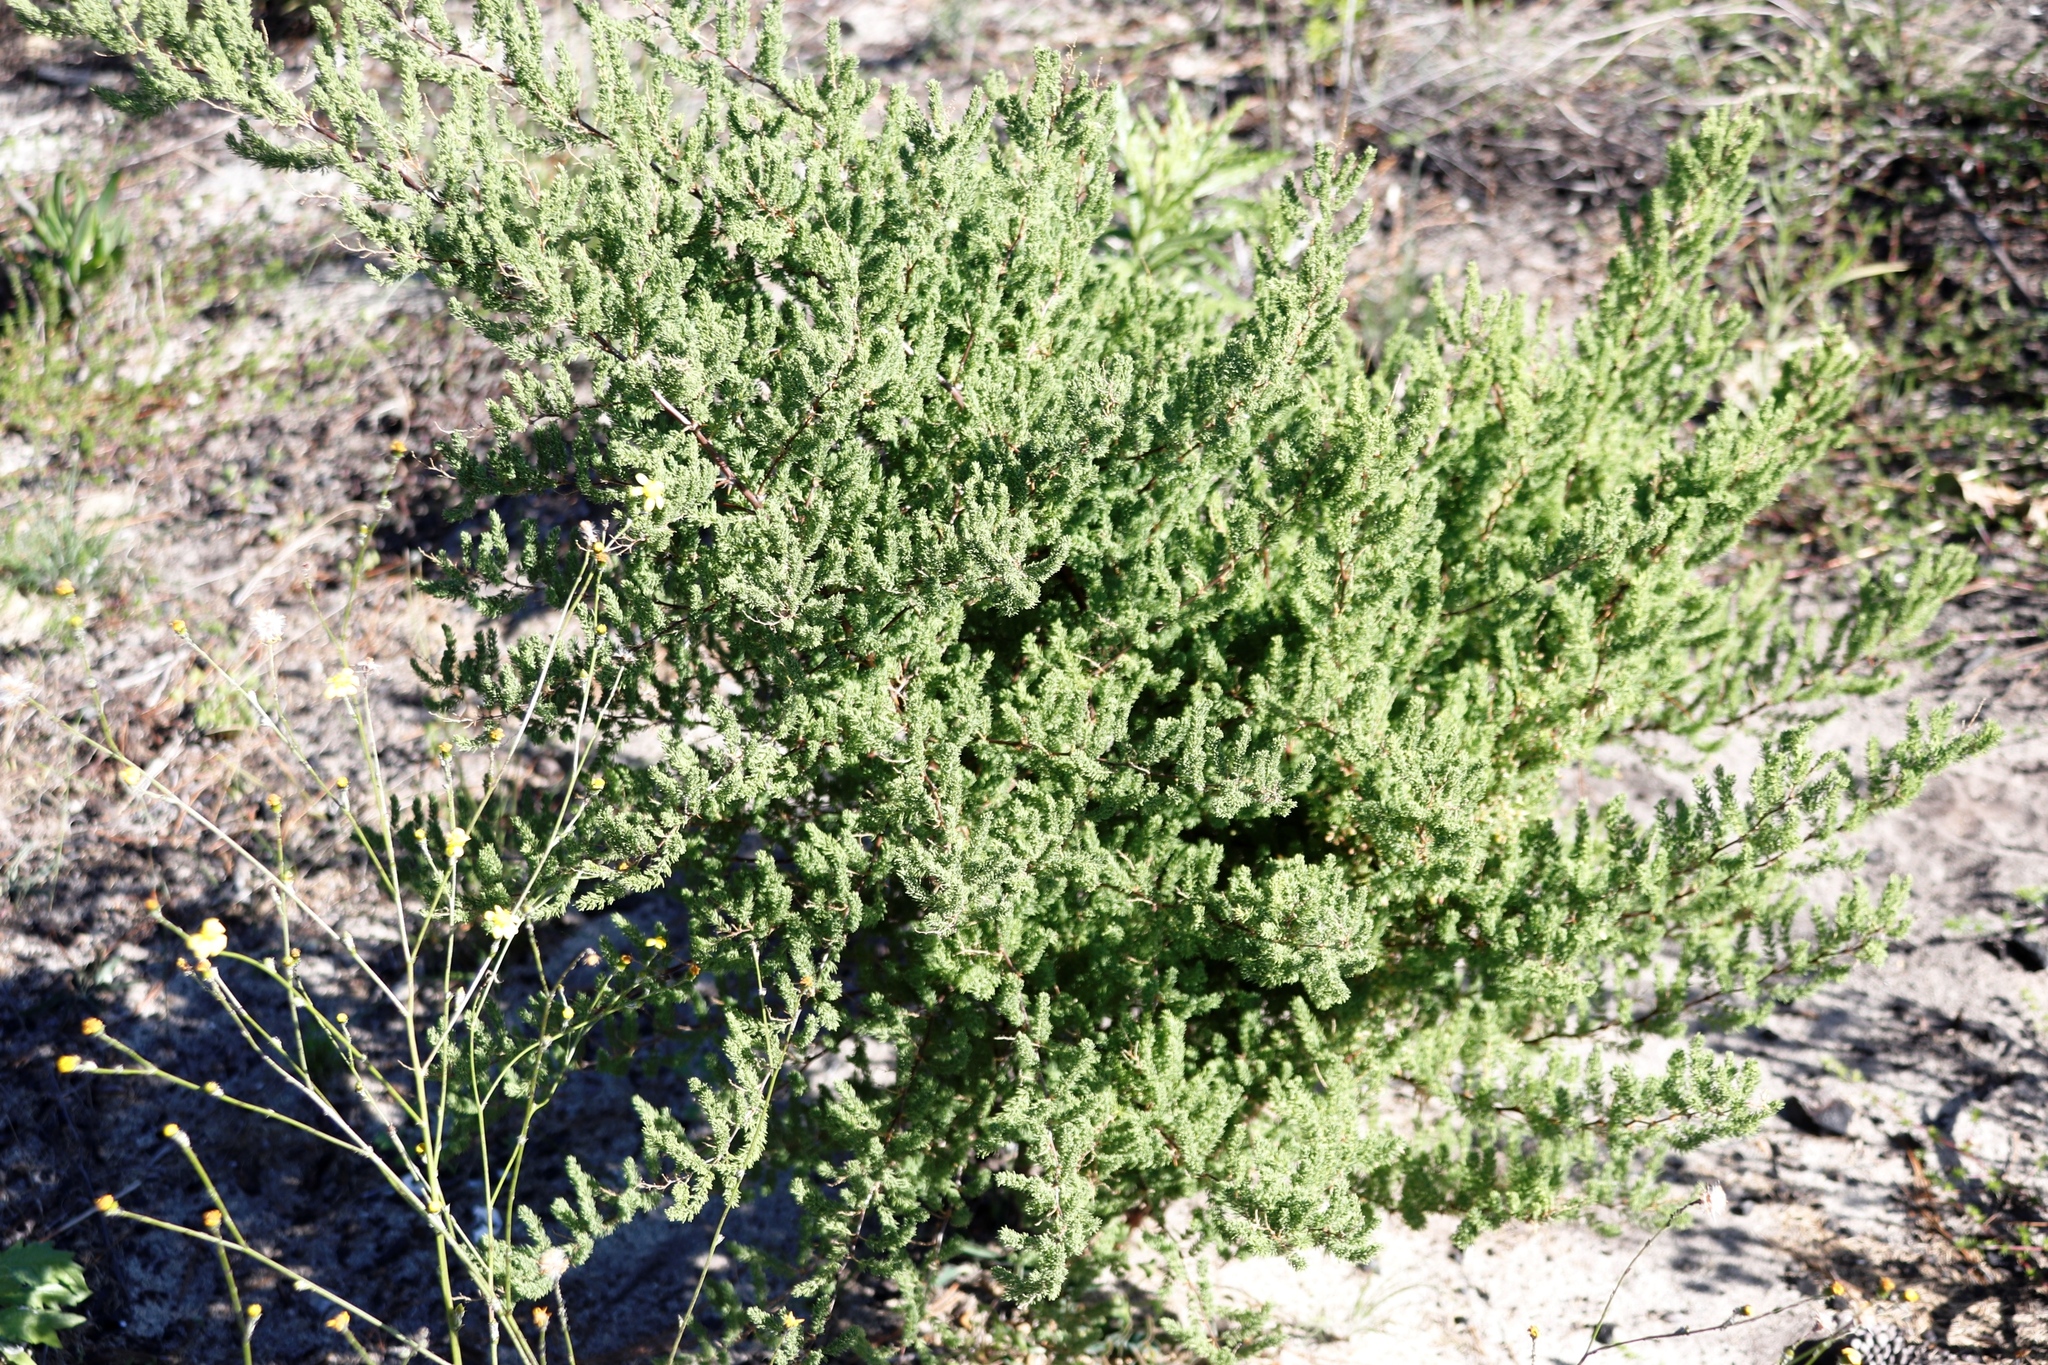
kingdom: Plantae
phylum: Tracheophyta
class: Liliopsida
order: Asparagales
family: Asparagaceae
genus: Asparagus
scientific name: Asparagus rubicundus
